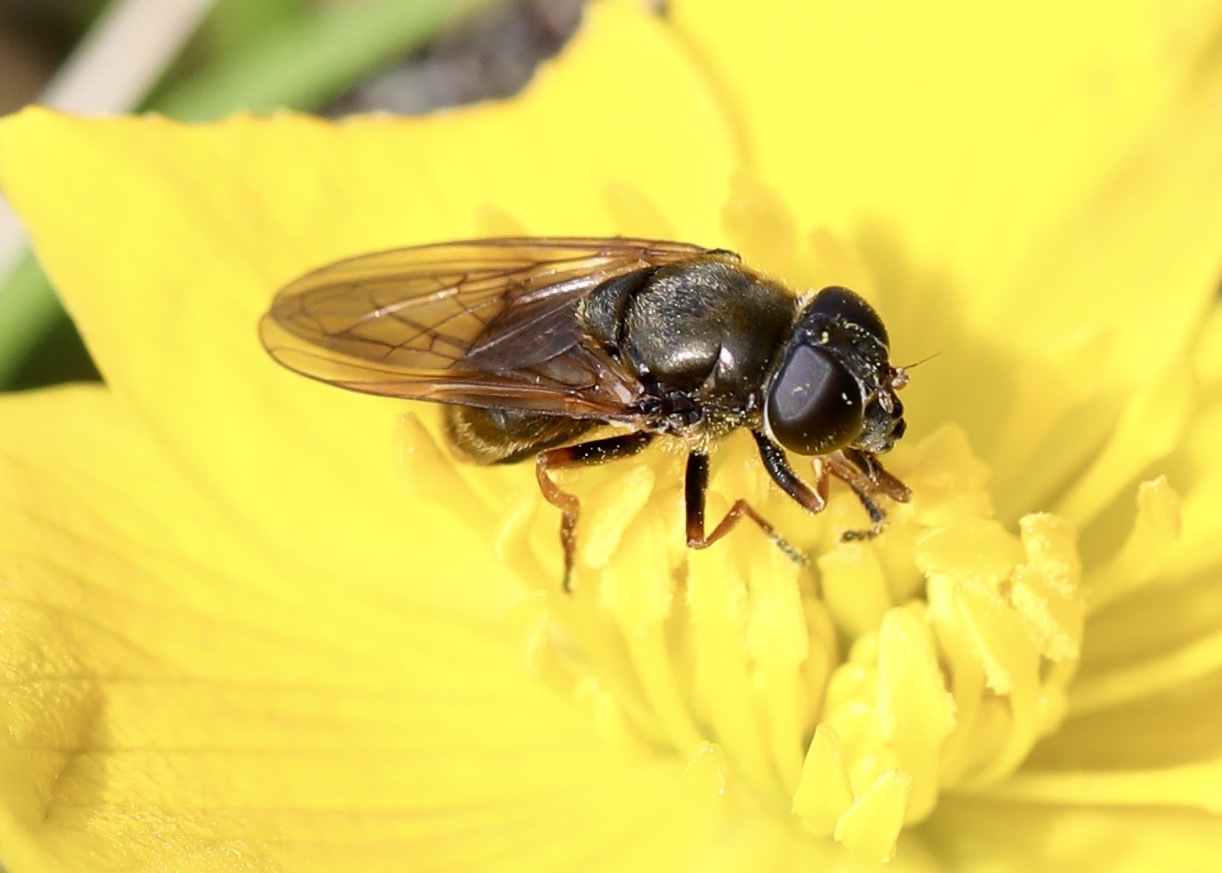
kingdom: Animalia
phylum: Arthropoda
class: Insecta
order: Diptera
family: Syrphidae
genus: Cheilosia
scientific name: Cheilosia
